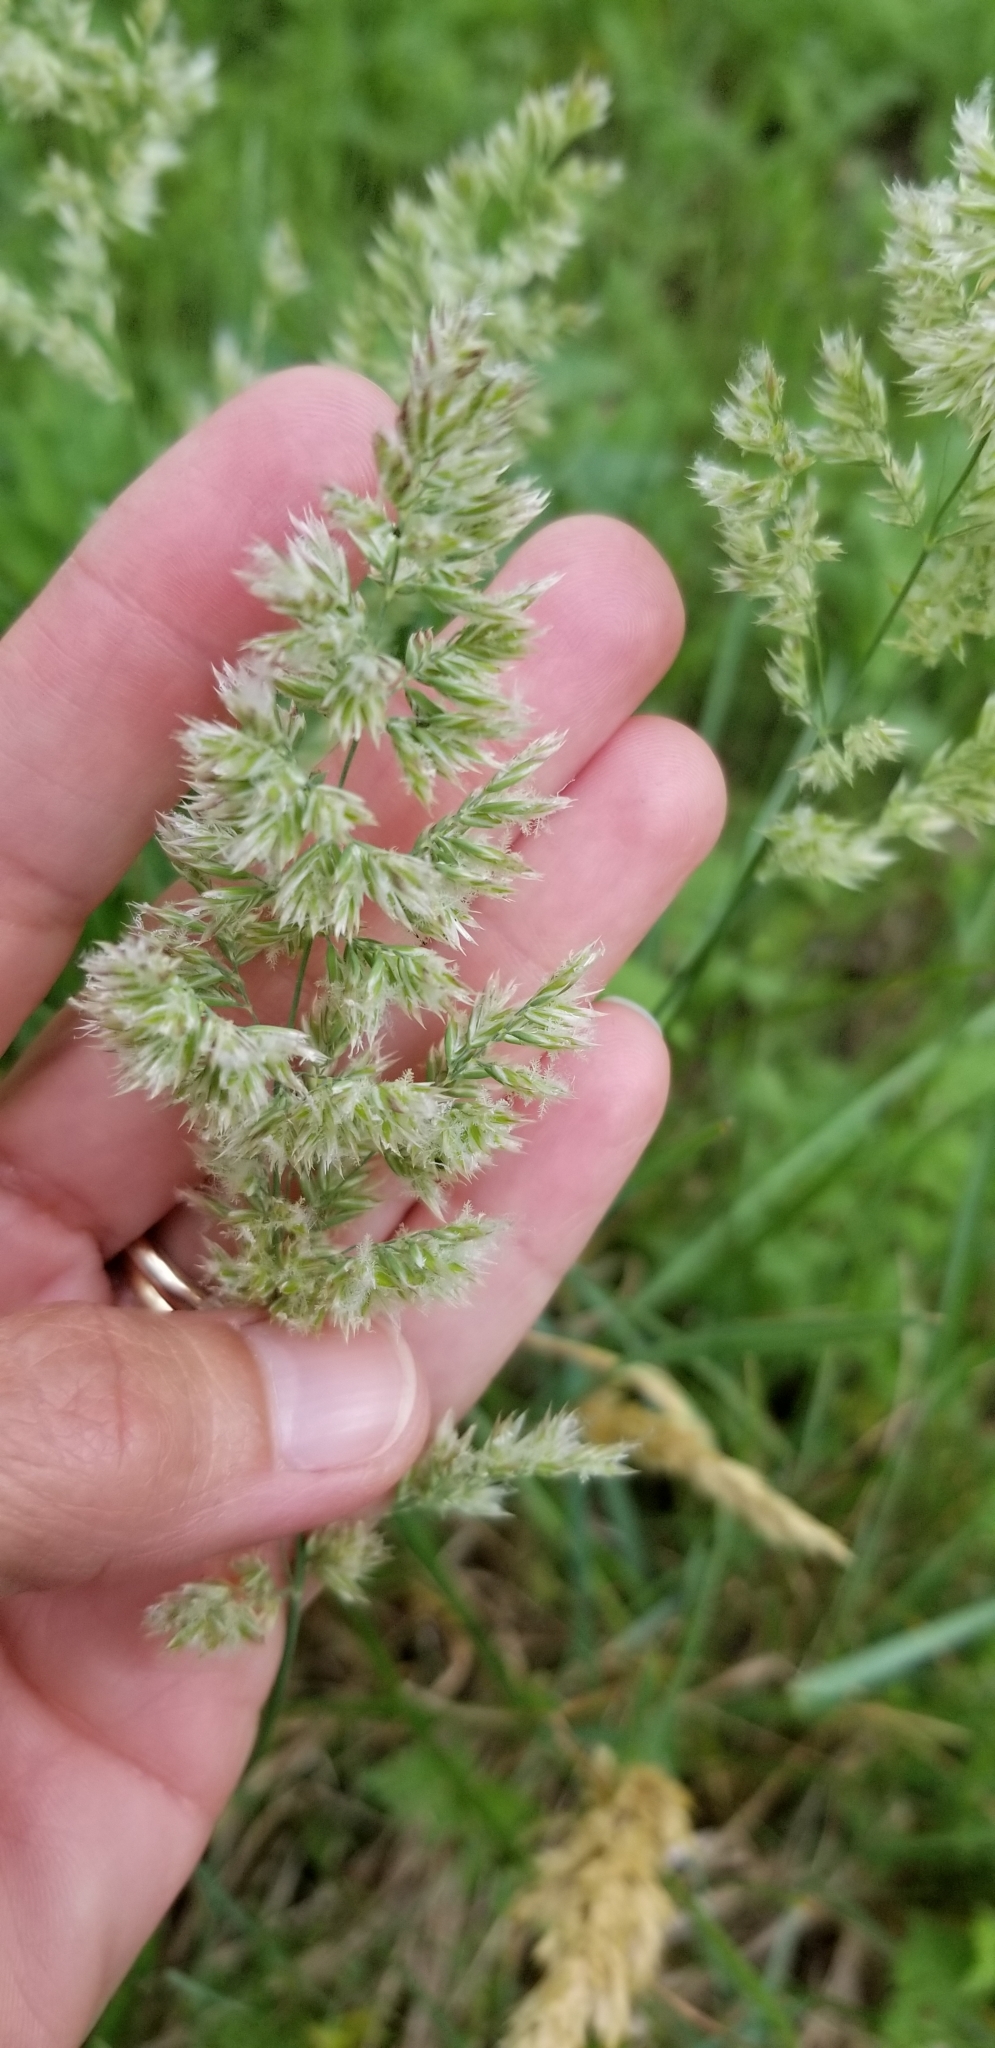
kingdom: Plantae
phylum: Tracheophyta
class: Liliopsida
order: Poales
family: Poaceae
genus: Poa
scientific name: Poa arachnifera
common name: Texas bluegrass
